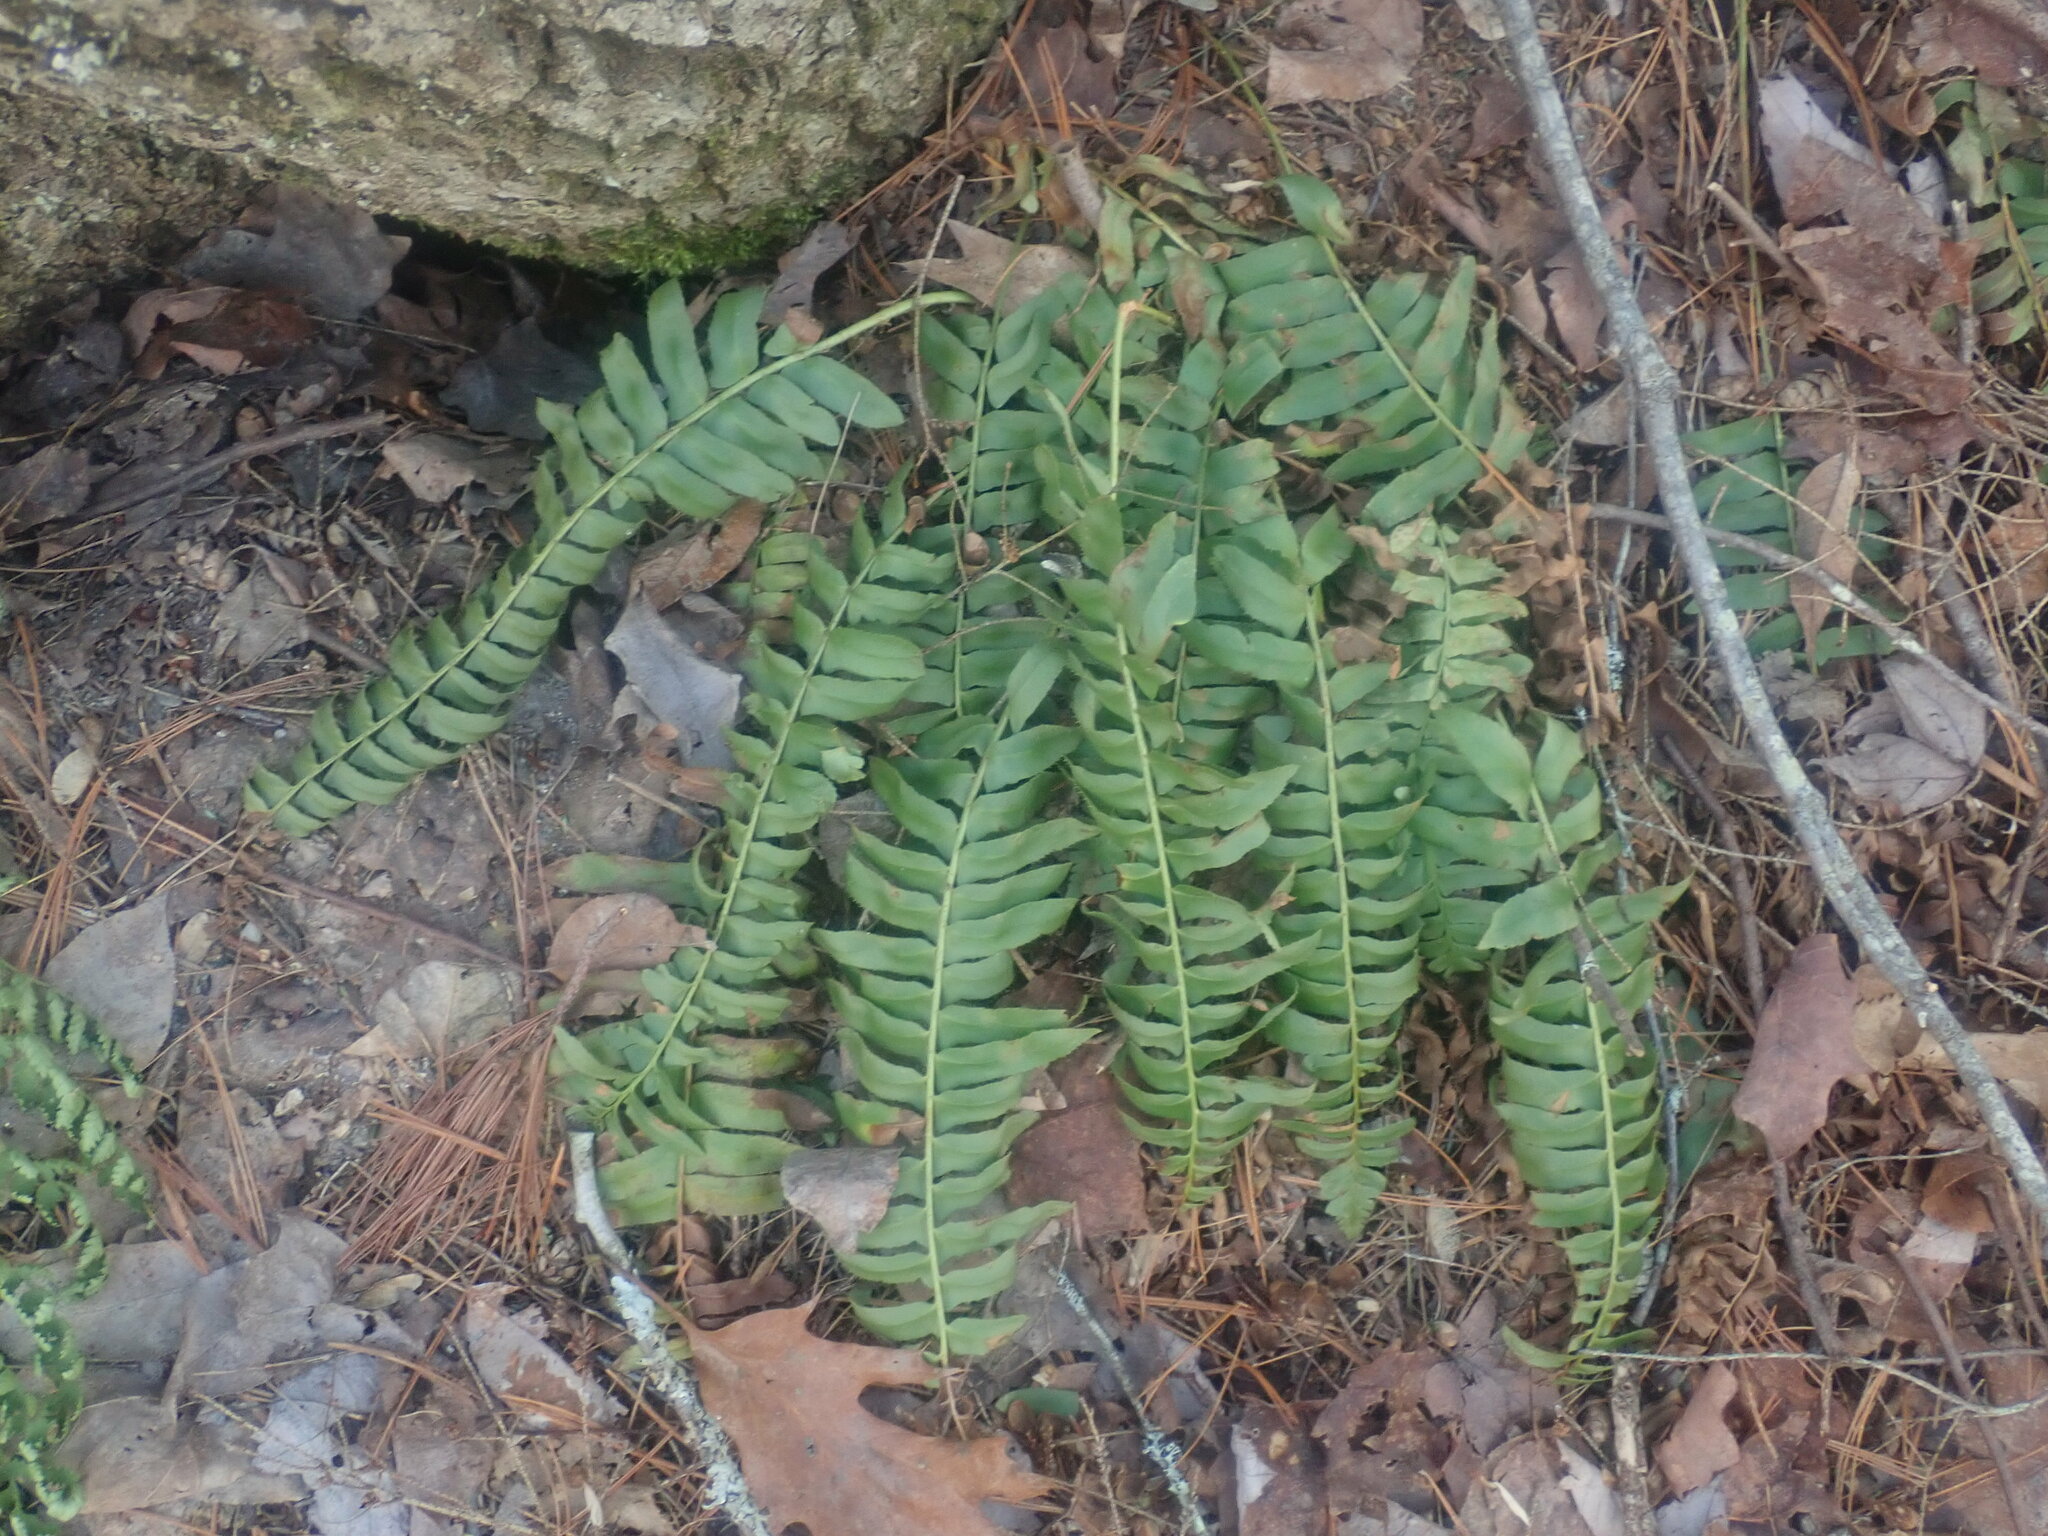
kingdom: Plantae
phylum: Tracheophyta
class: Polypodiopsida
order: Polypodiales
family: Dryopteridaceae
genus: Polystichum
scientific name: Polystichum acrostichoides
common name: Christmas fern
